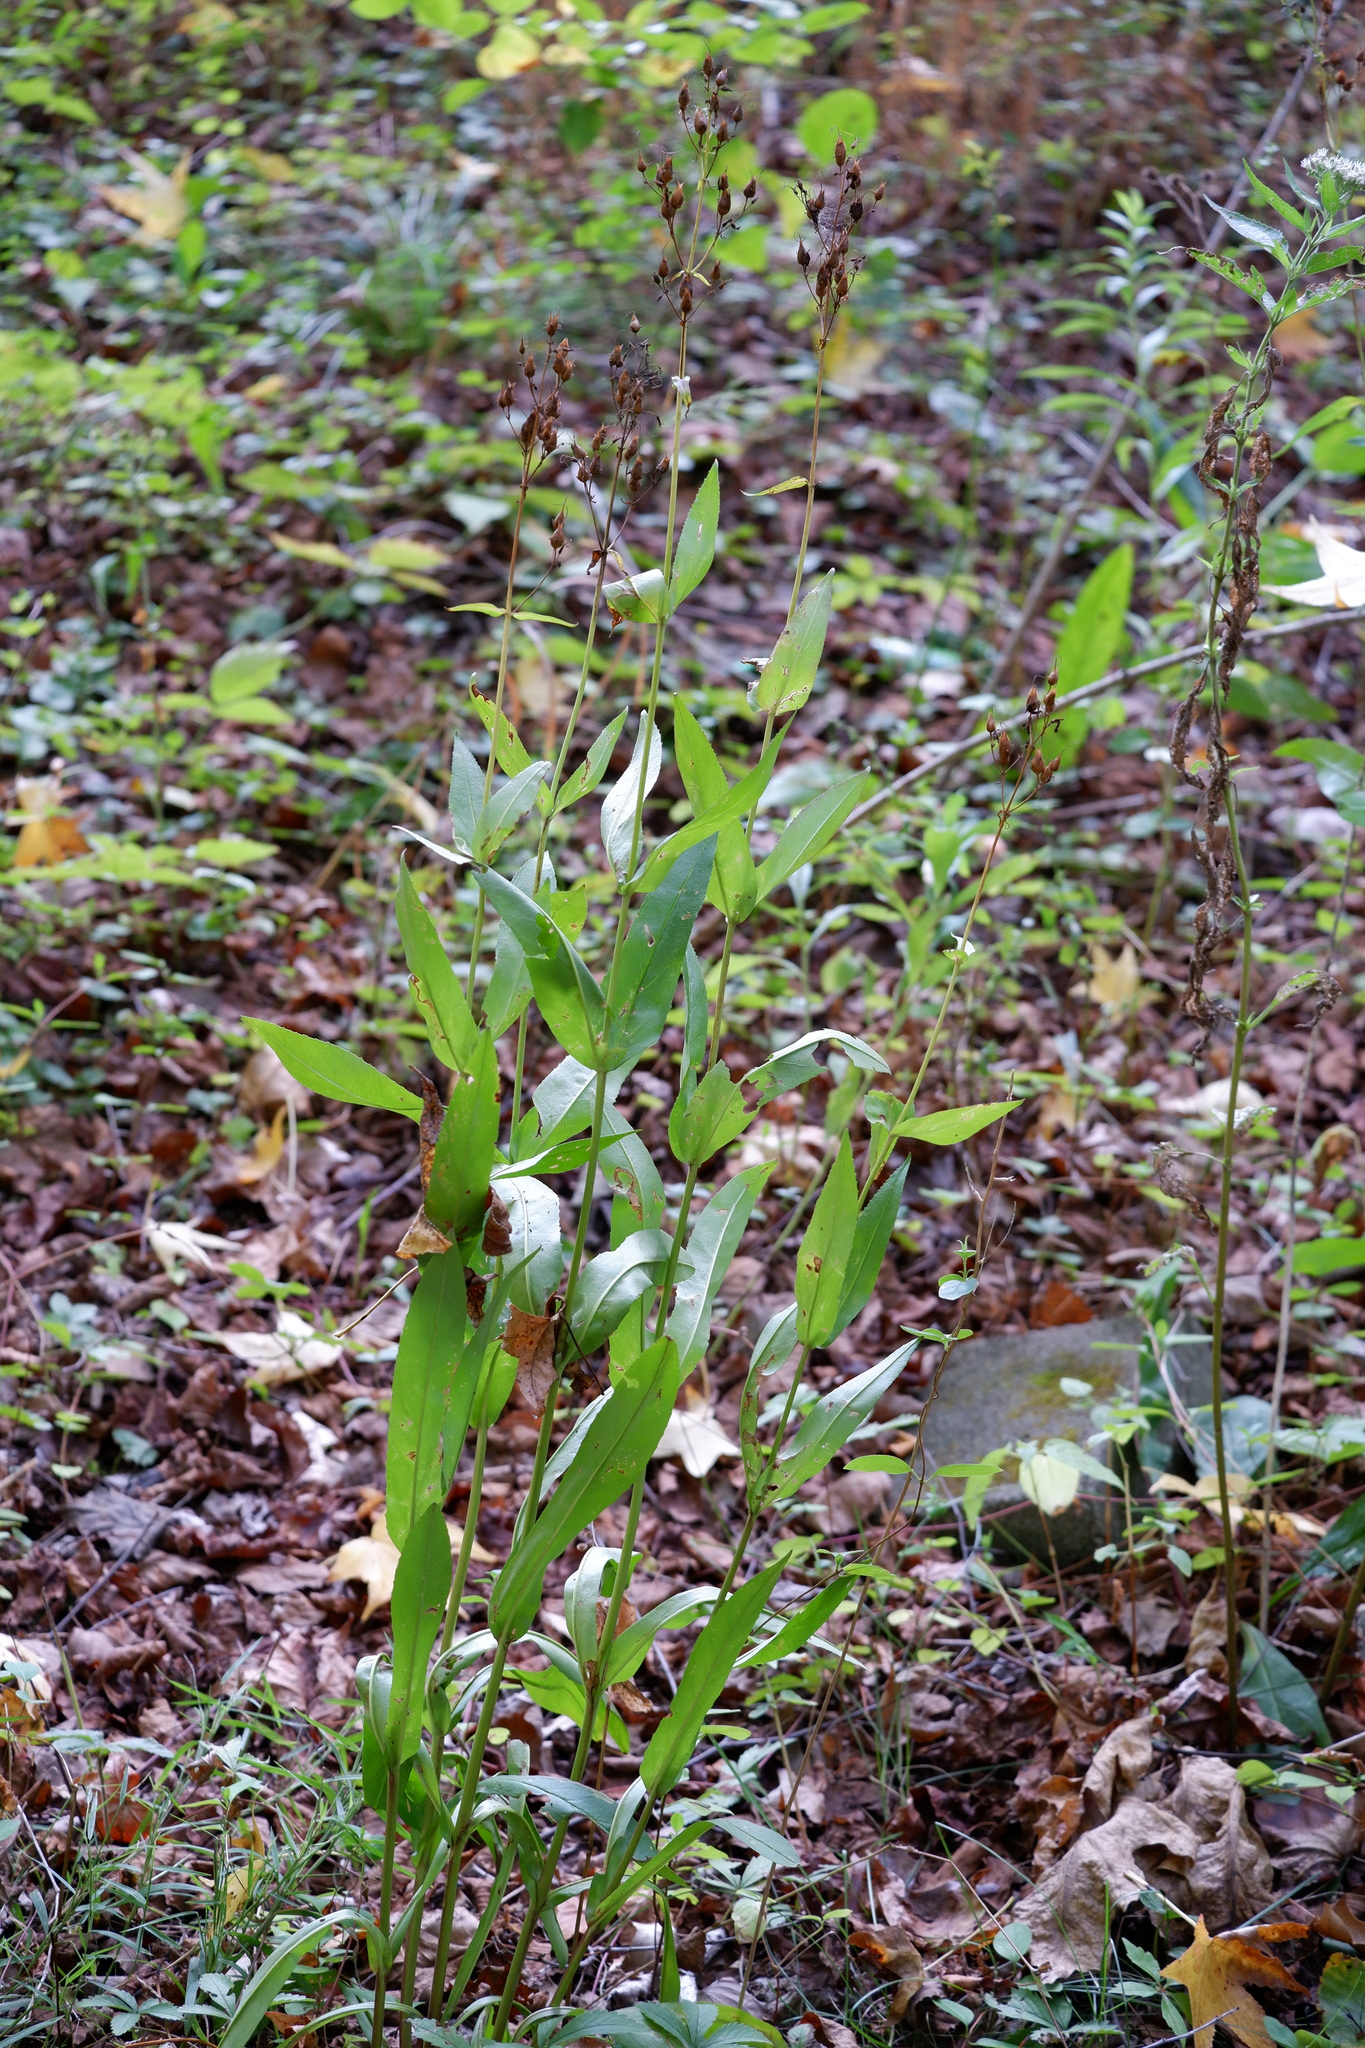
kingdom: Plantae
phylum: Tracheophyta
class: Magnoliopsida
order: Lamiales
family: Plantaginaceae
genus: Penstemon
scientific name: Penstemon digitalis
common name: Foxglove beardtongue
